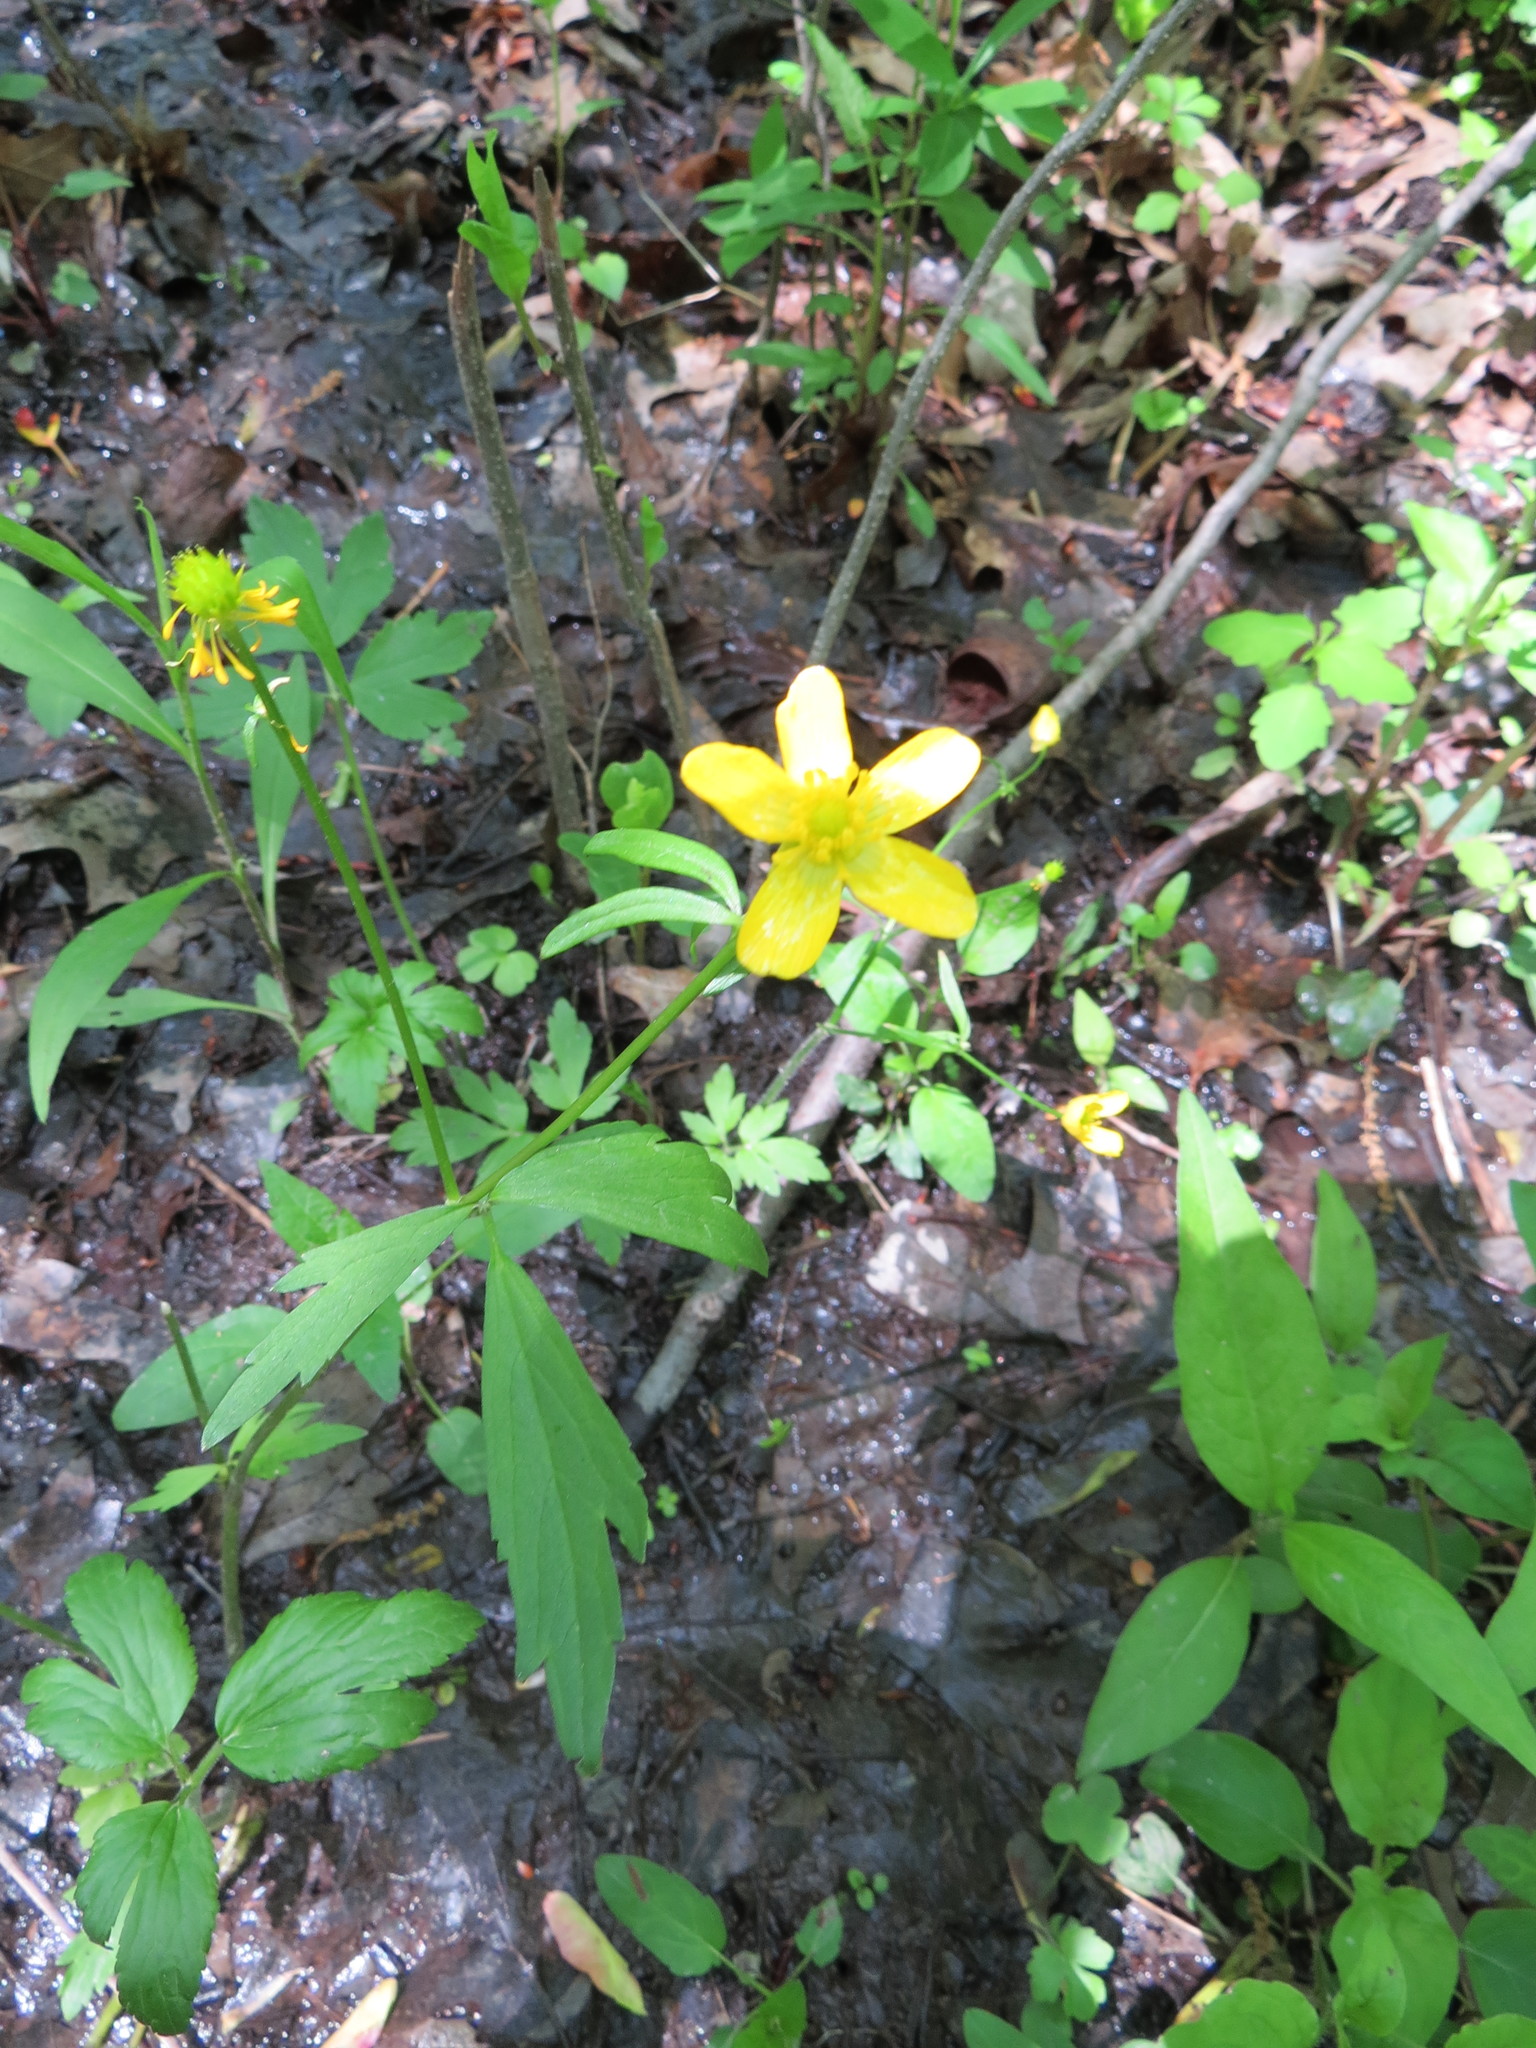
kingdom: Plantae
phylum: Tracheophyta
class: Magnoliopsida
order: Ranunculales
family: Ranunculaceae
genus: Ranunculus
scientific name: Ranunculus hispidus
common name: Bristly buttercup
